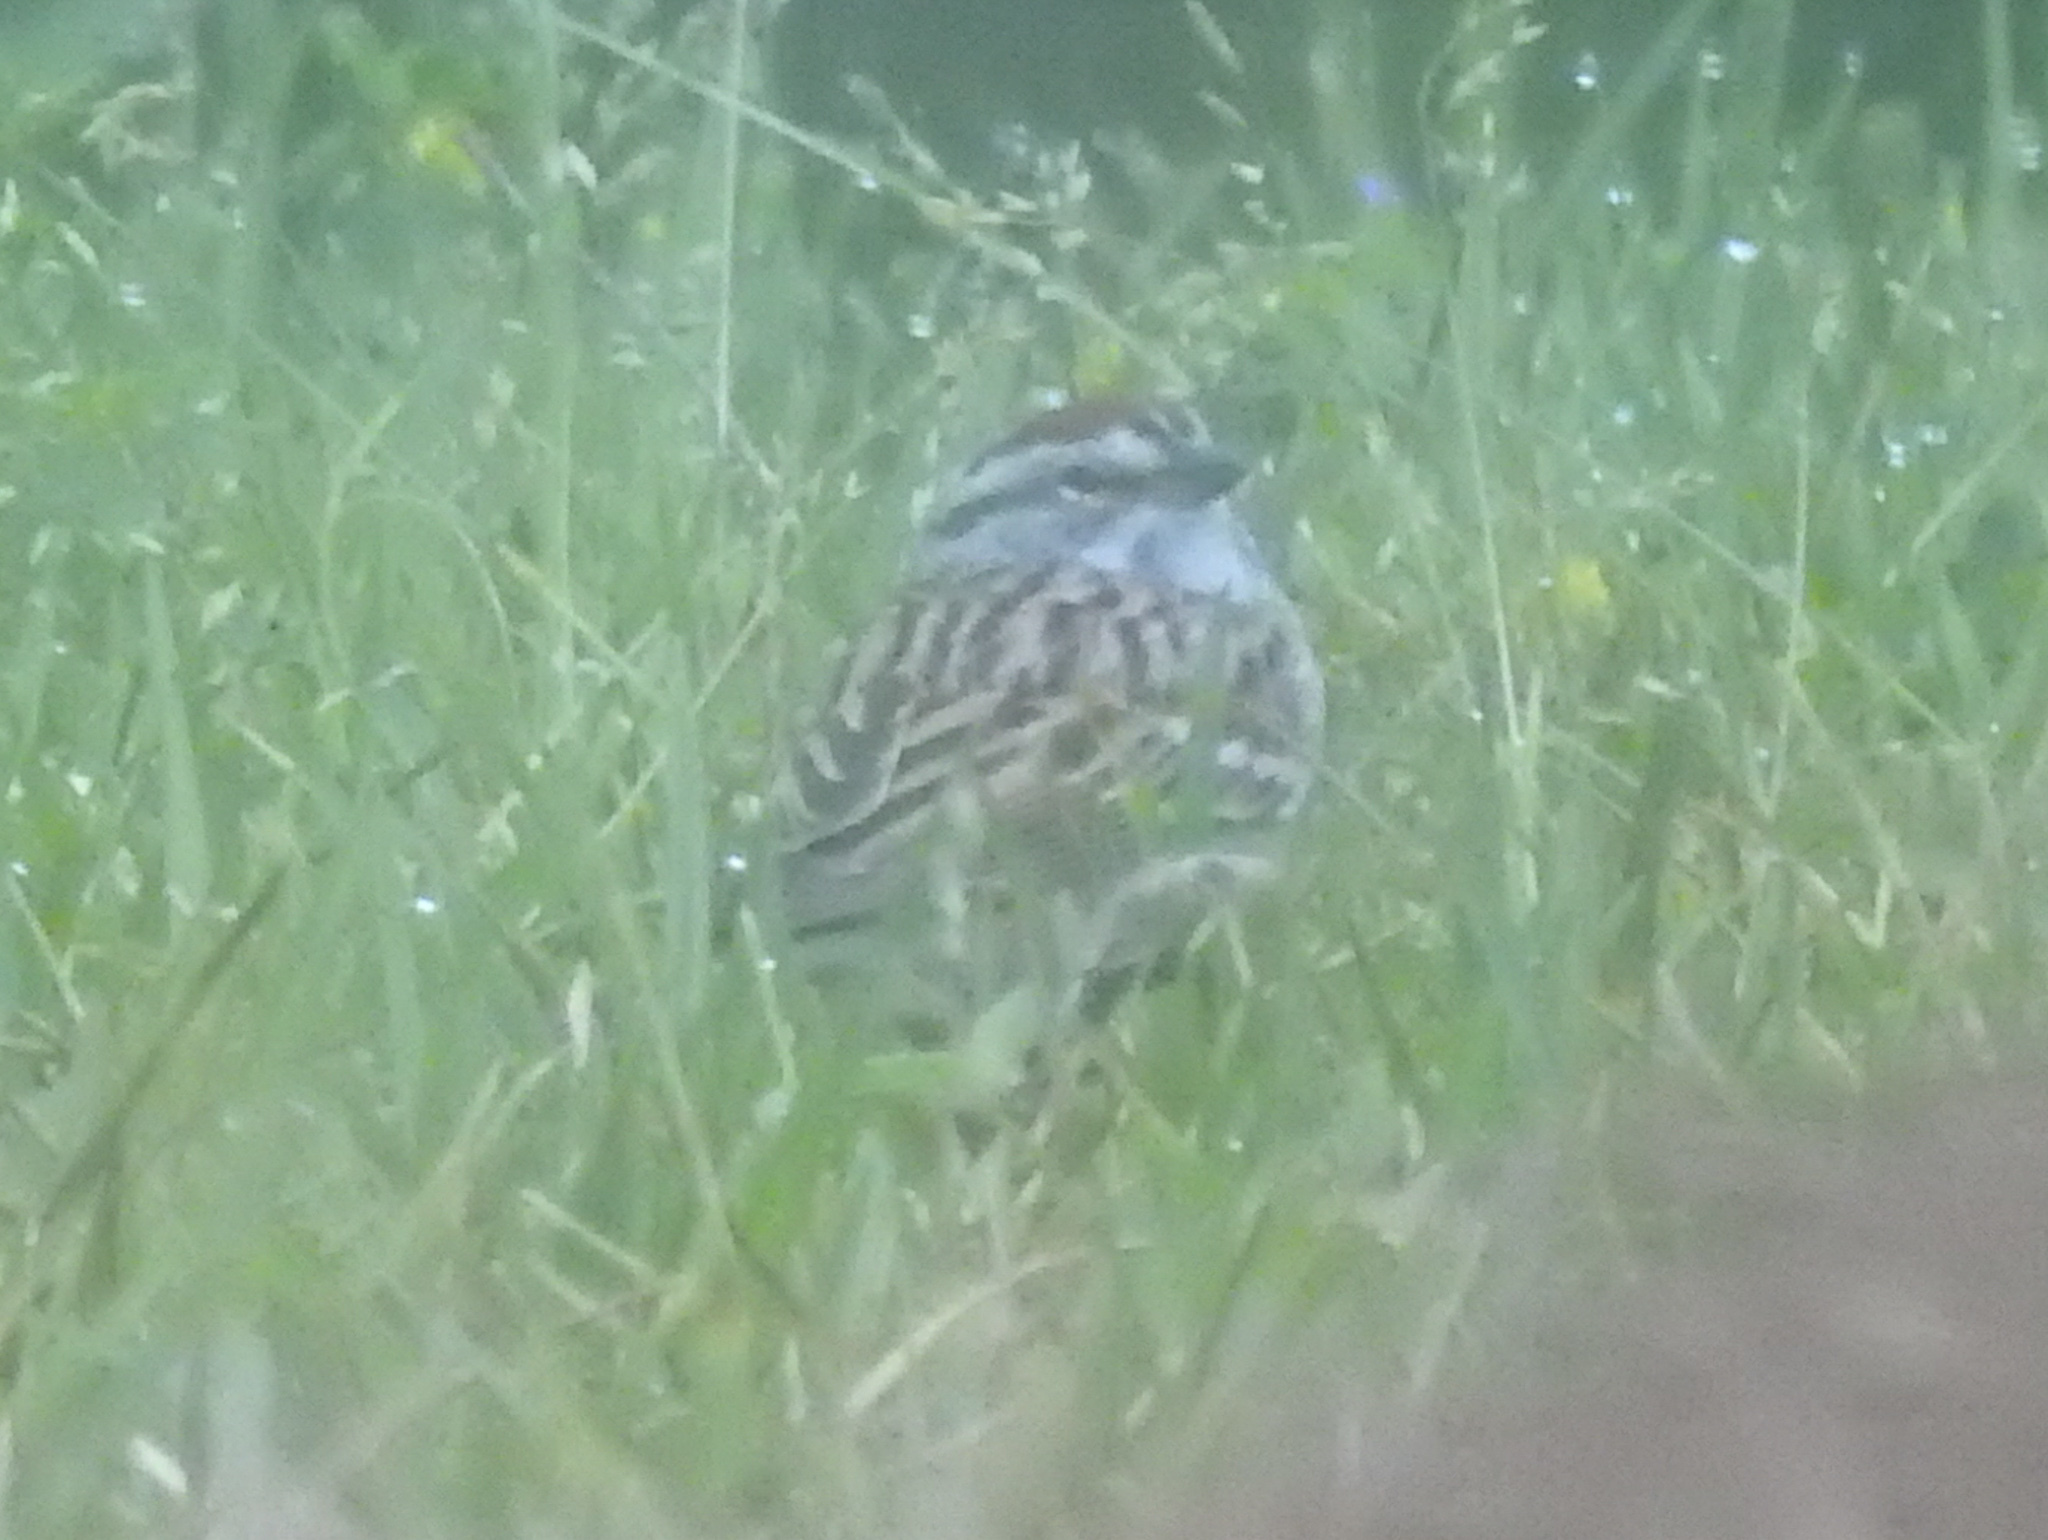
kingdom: Animalia
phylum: Chordata
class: Aves
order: Passeriformes
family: Passerellidae
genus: Spizella
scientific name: Spizella passerina
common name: Chipping sparrow
